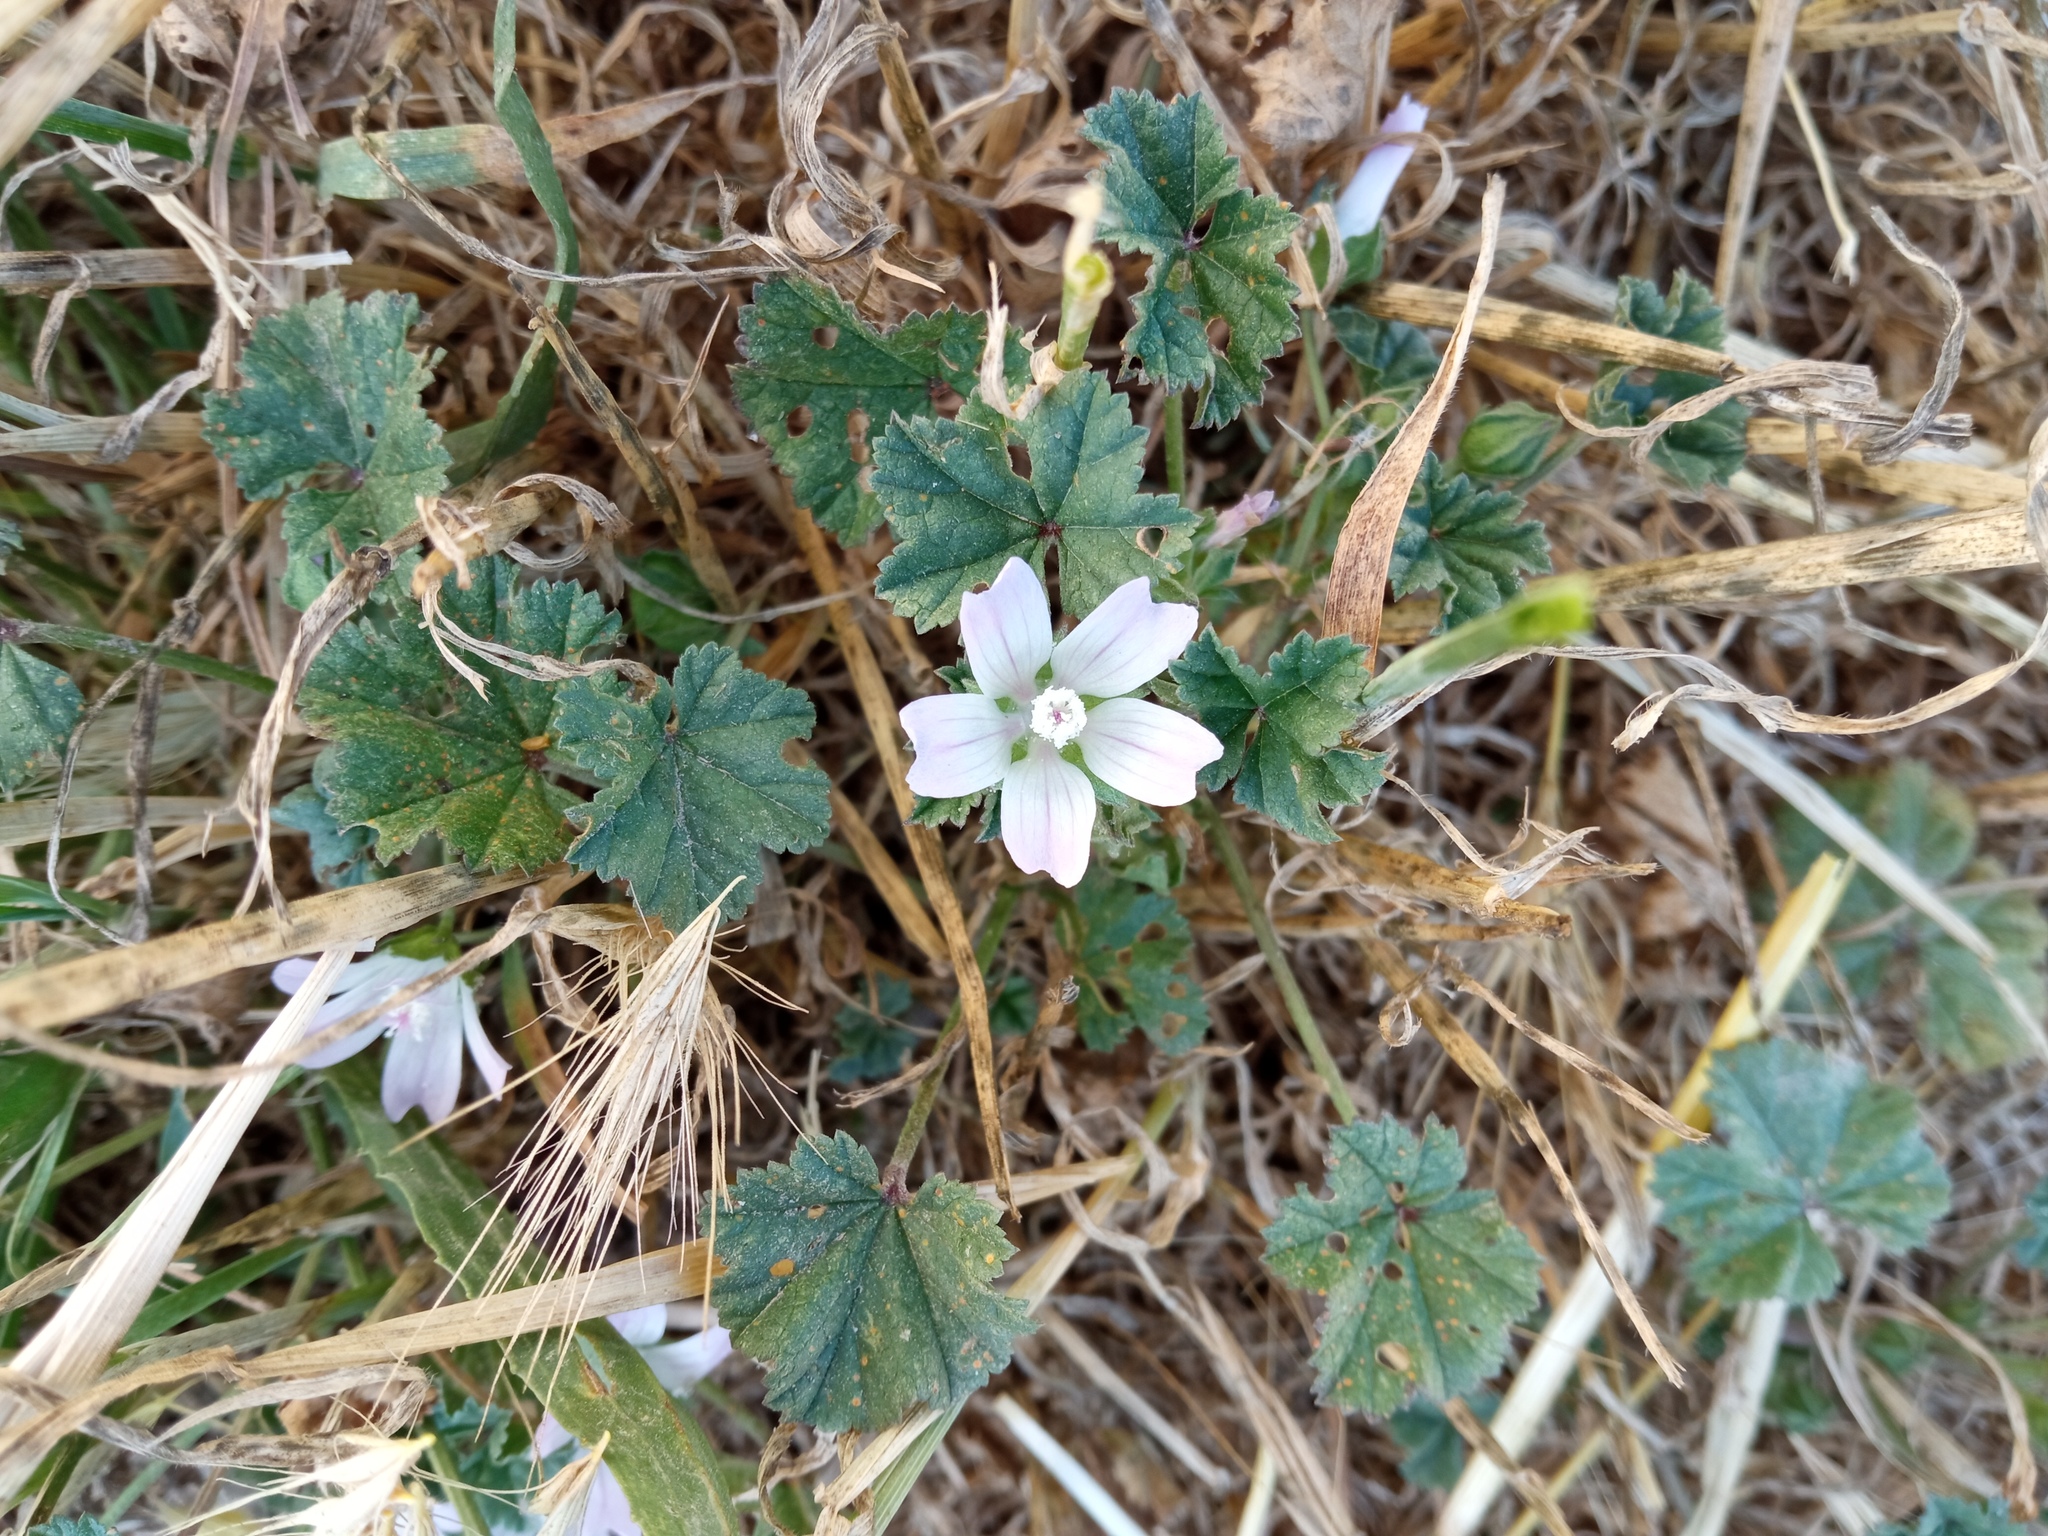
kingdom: Plantae
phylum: Tracheophyta
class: Magnoliopsida
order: Malvales
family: Malvaceae
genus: Malva
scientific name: Malva neglecta
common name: Common mallow
